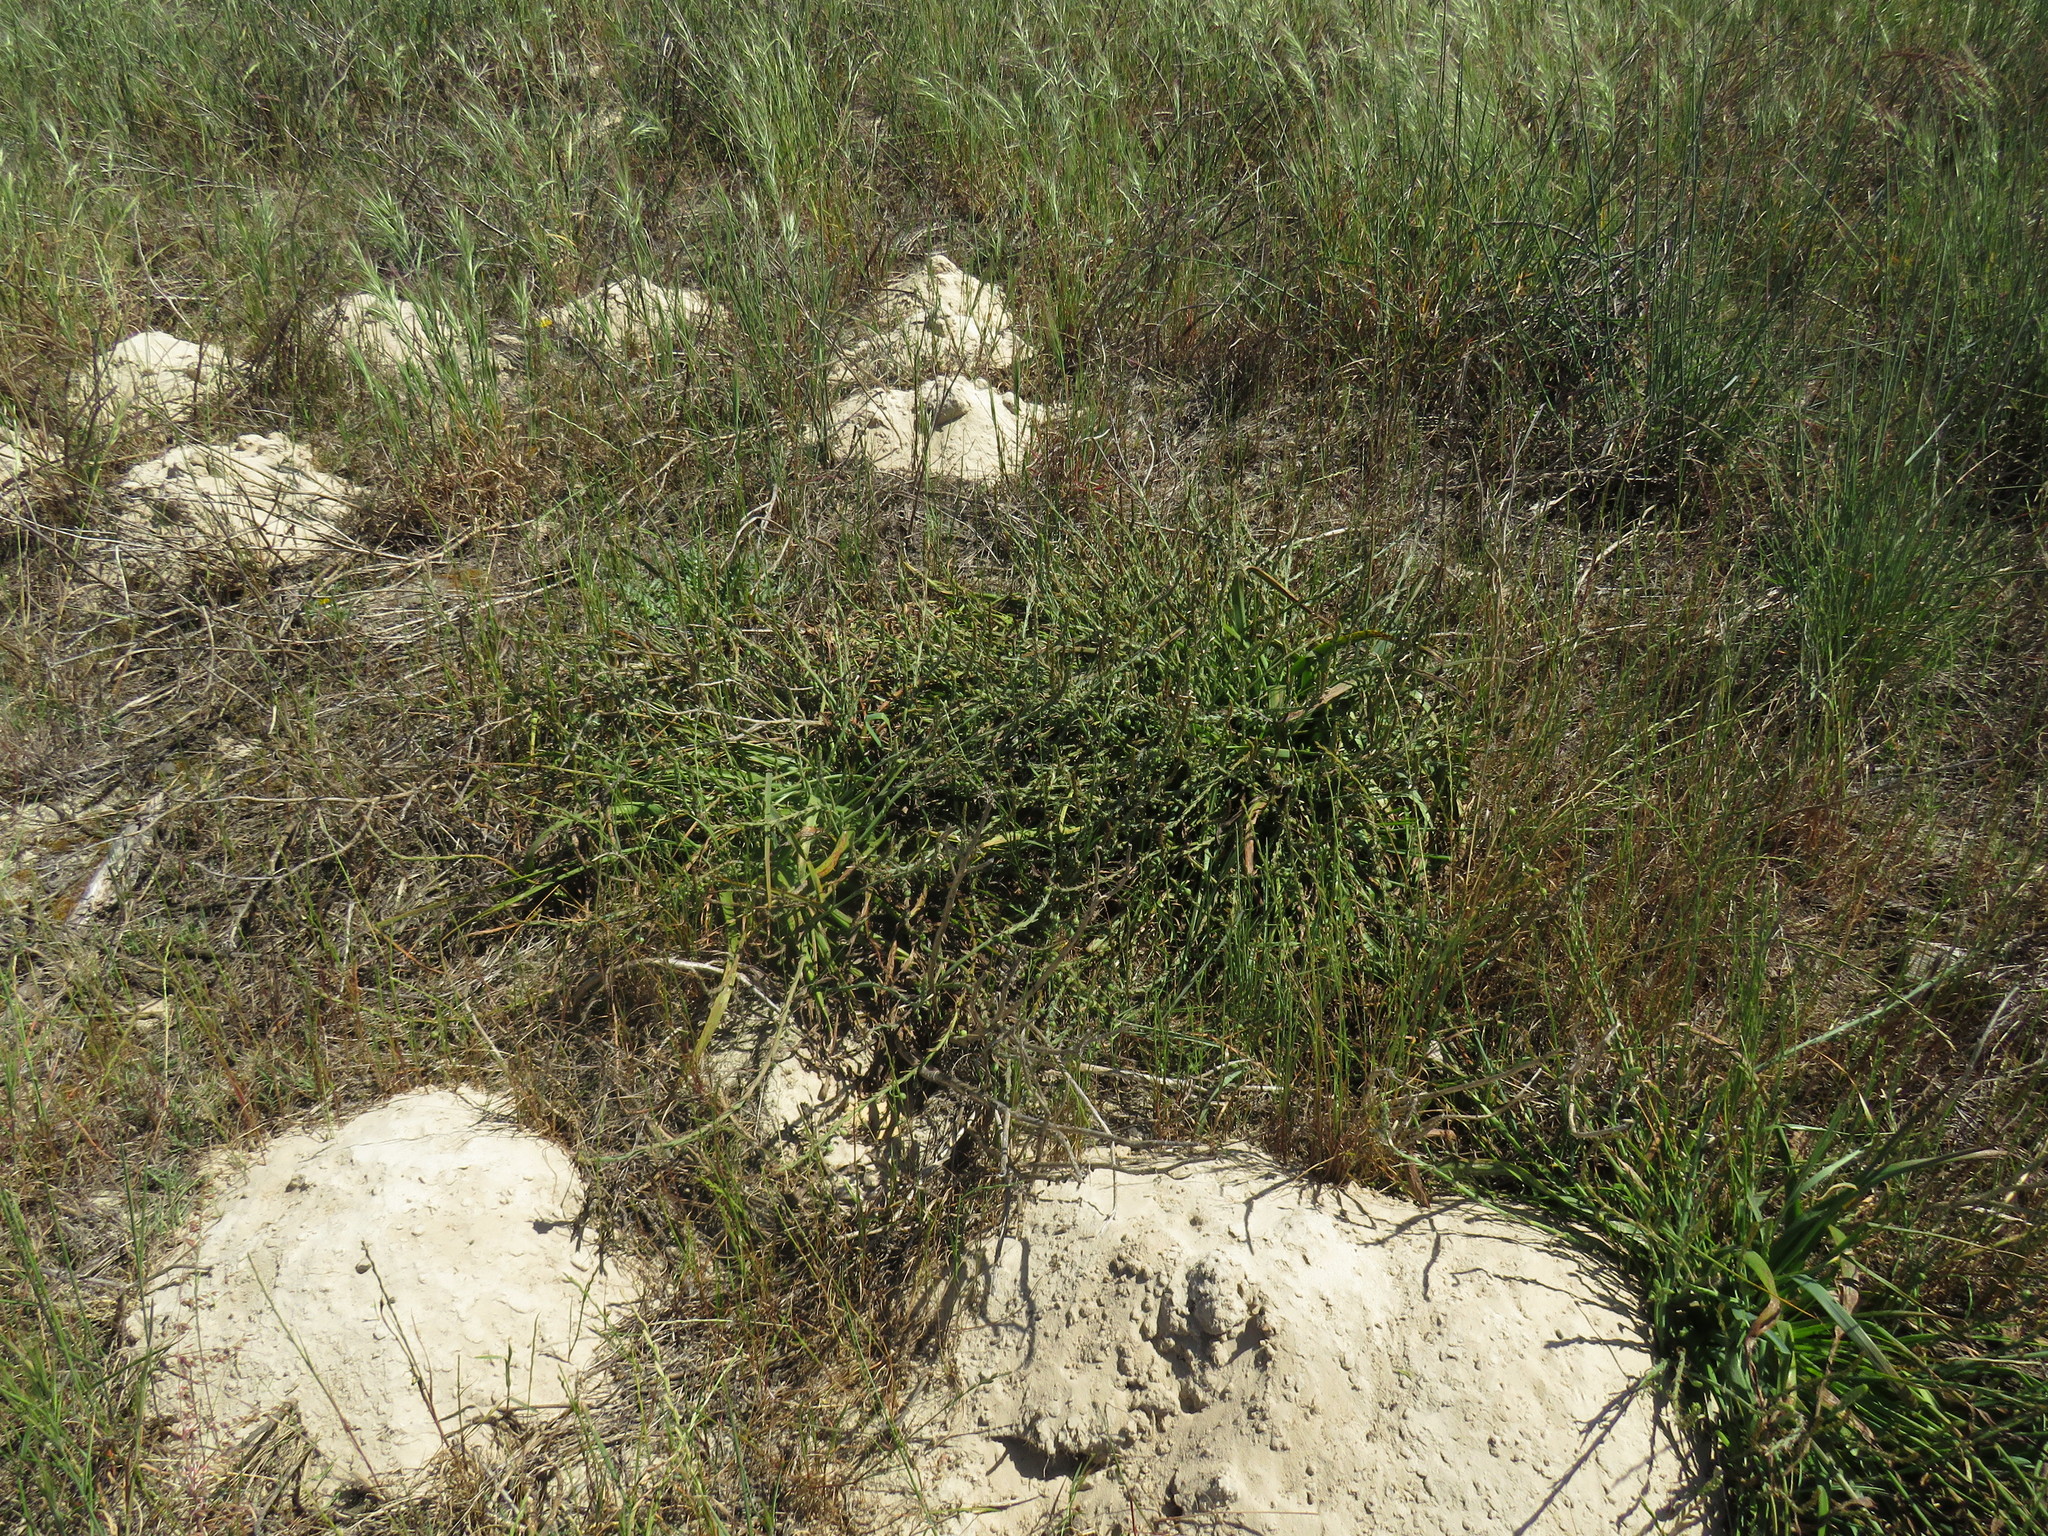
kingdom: Plantae
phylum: Tracheophyta
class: Liliopsida
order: Asparagales
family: Asphodelaceae
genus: Trachyandra
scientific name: Trachyandra ciliata
